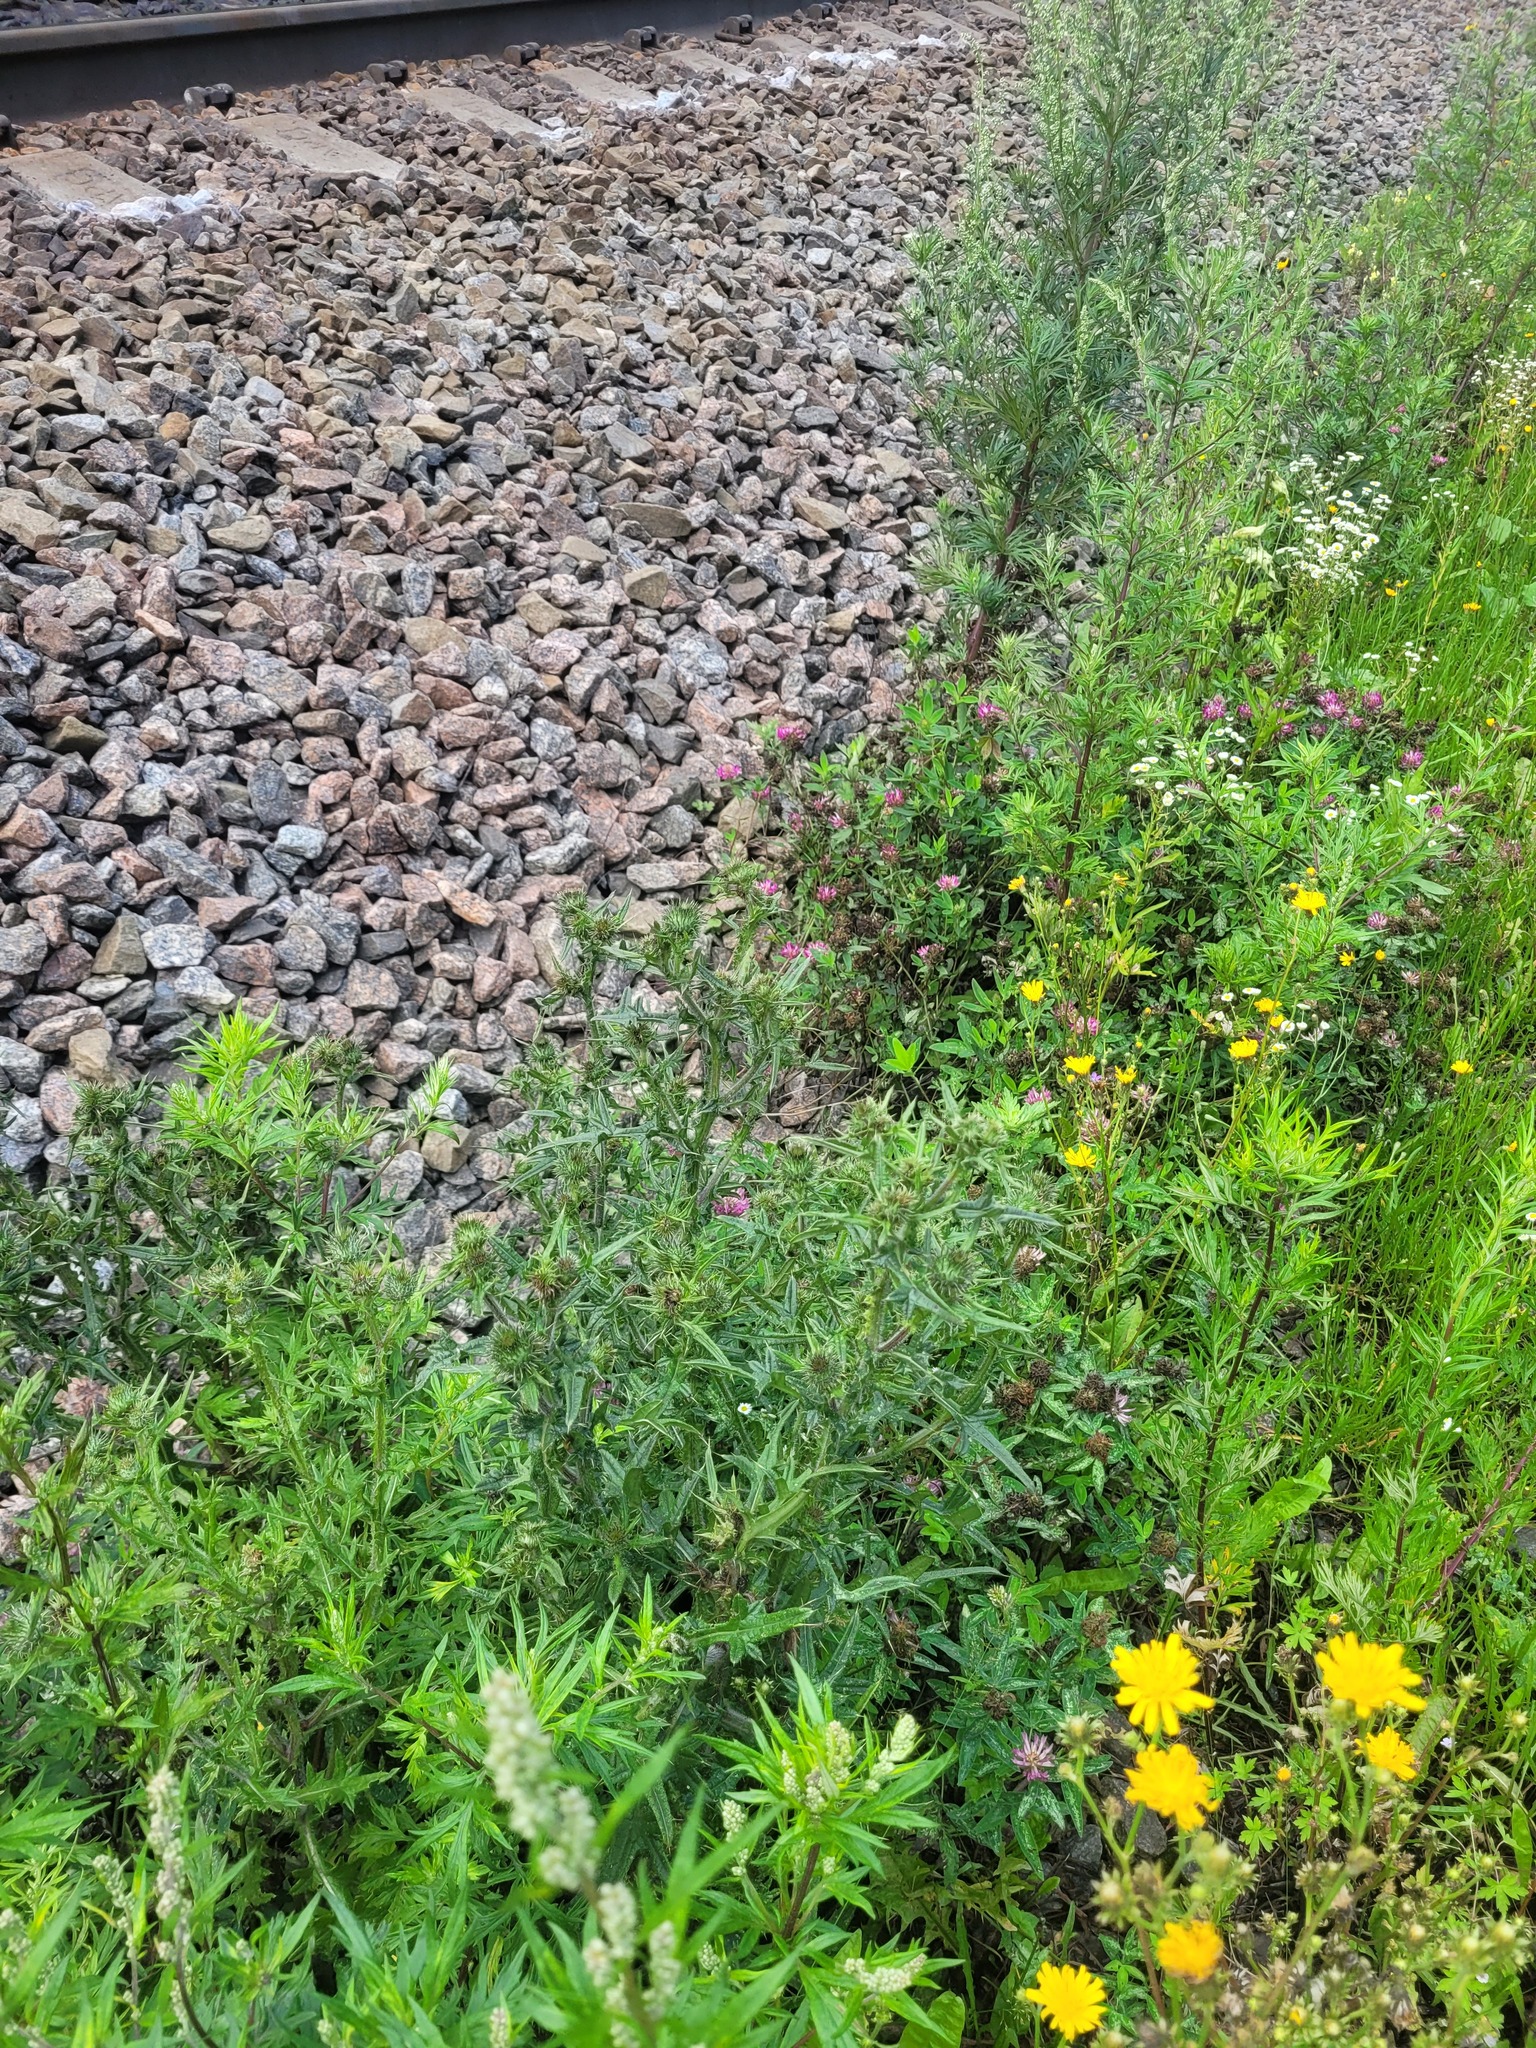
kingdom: Plantae
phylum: Tracheophyta
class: Magnoliopsida
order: Asterales
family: Asteraceae
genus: Cirsium
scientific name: Cirsium vulgare
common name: Bull thistle
